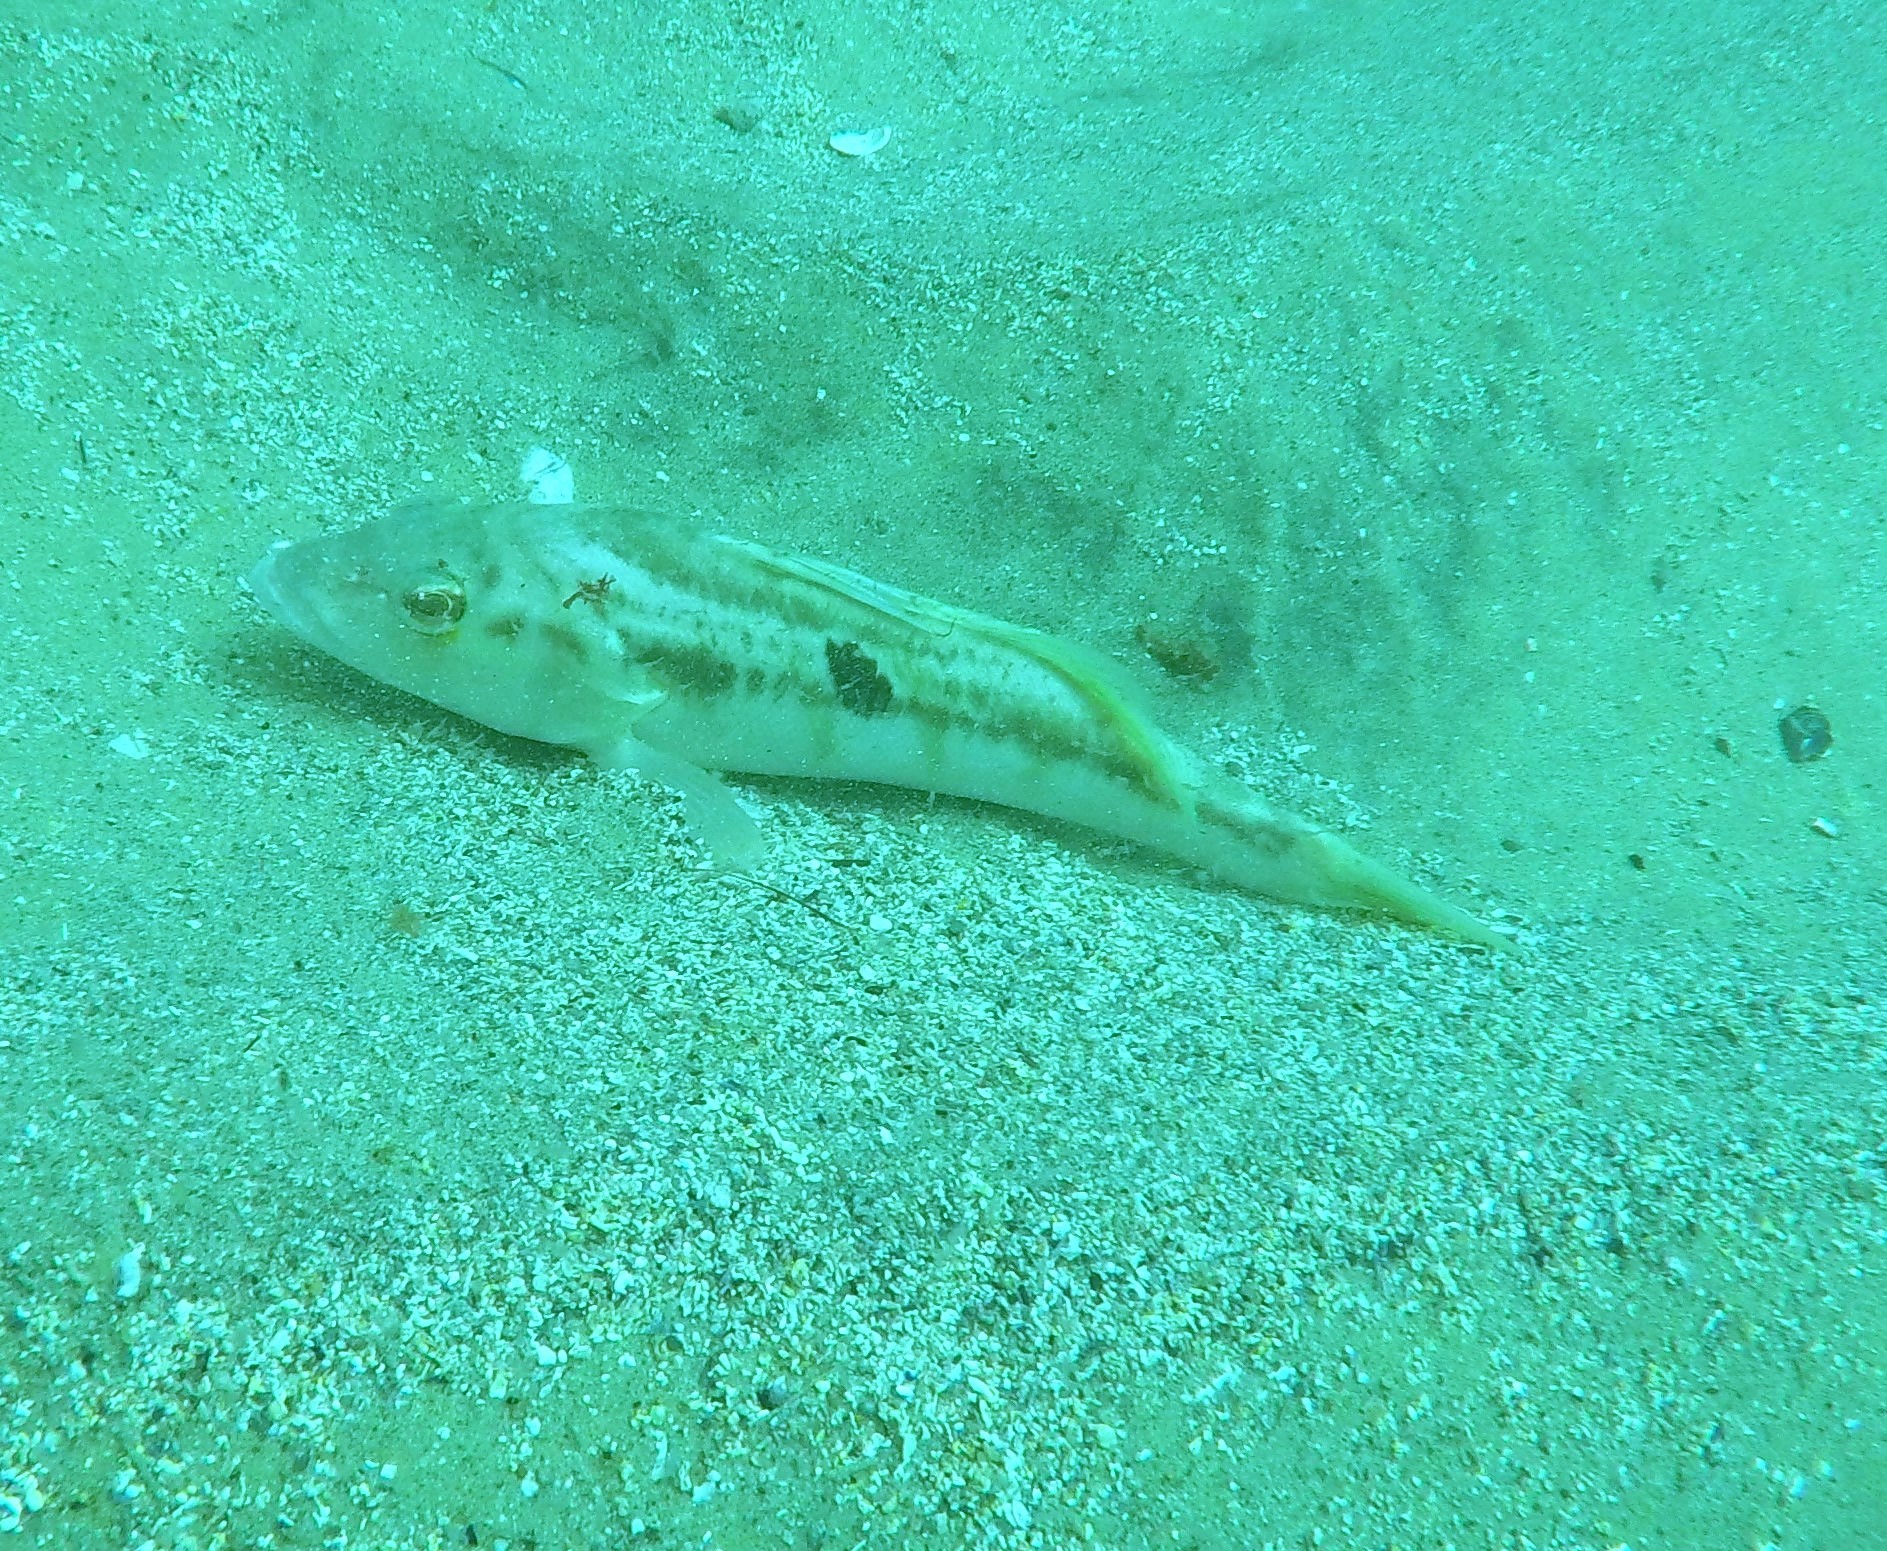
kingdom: Animalia
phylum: Chordata
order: Perciformes
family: Serranidae
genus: Paralabrax
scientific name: Paralabrax nebulifer
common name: Barred sand bass
